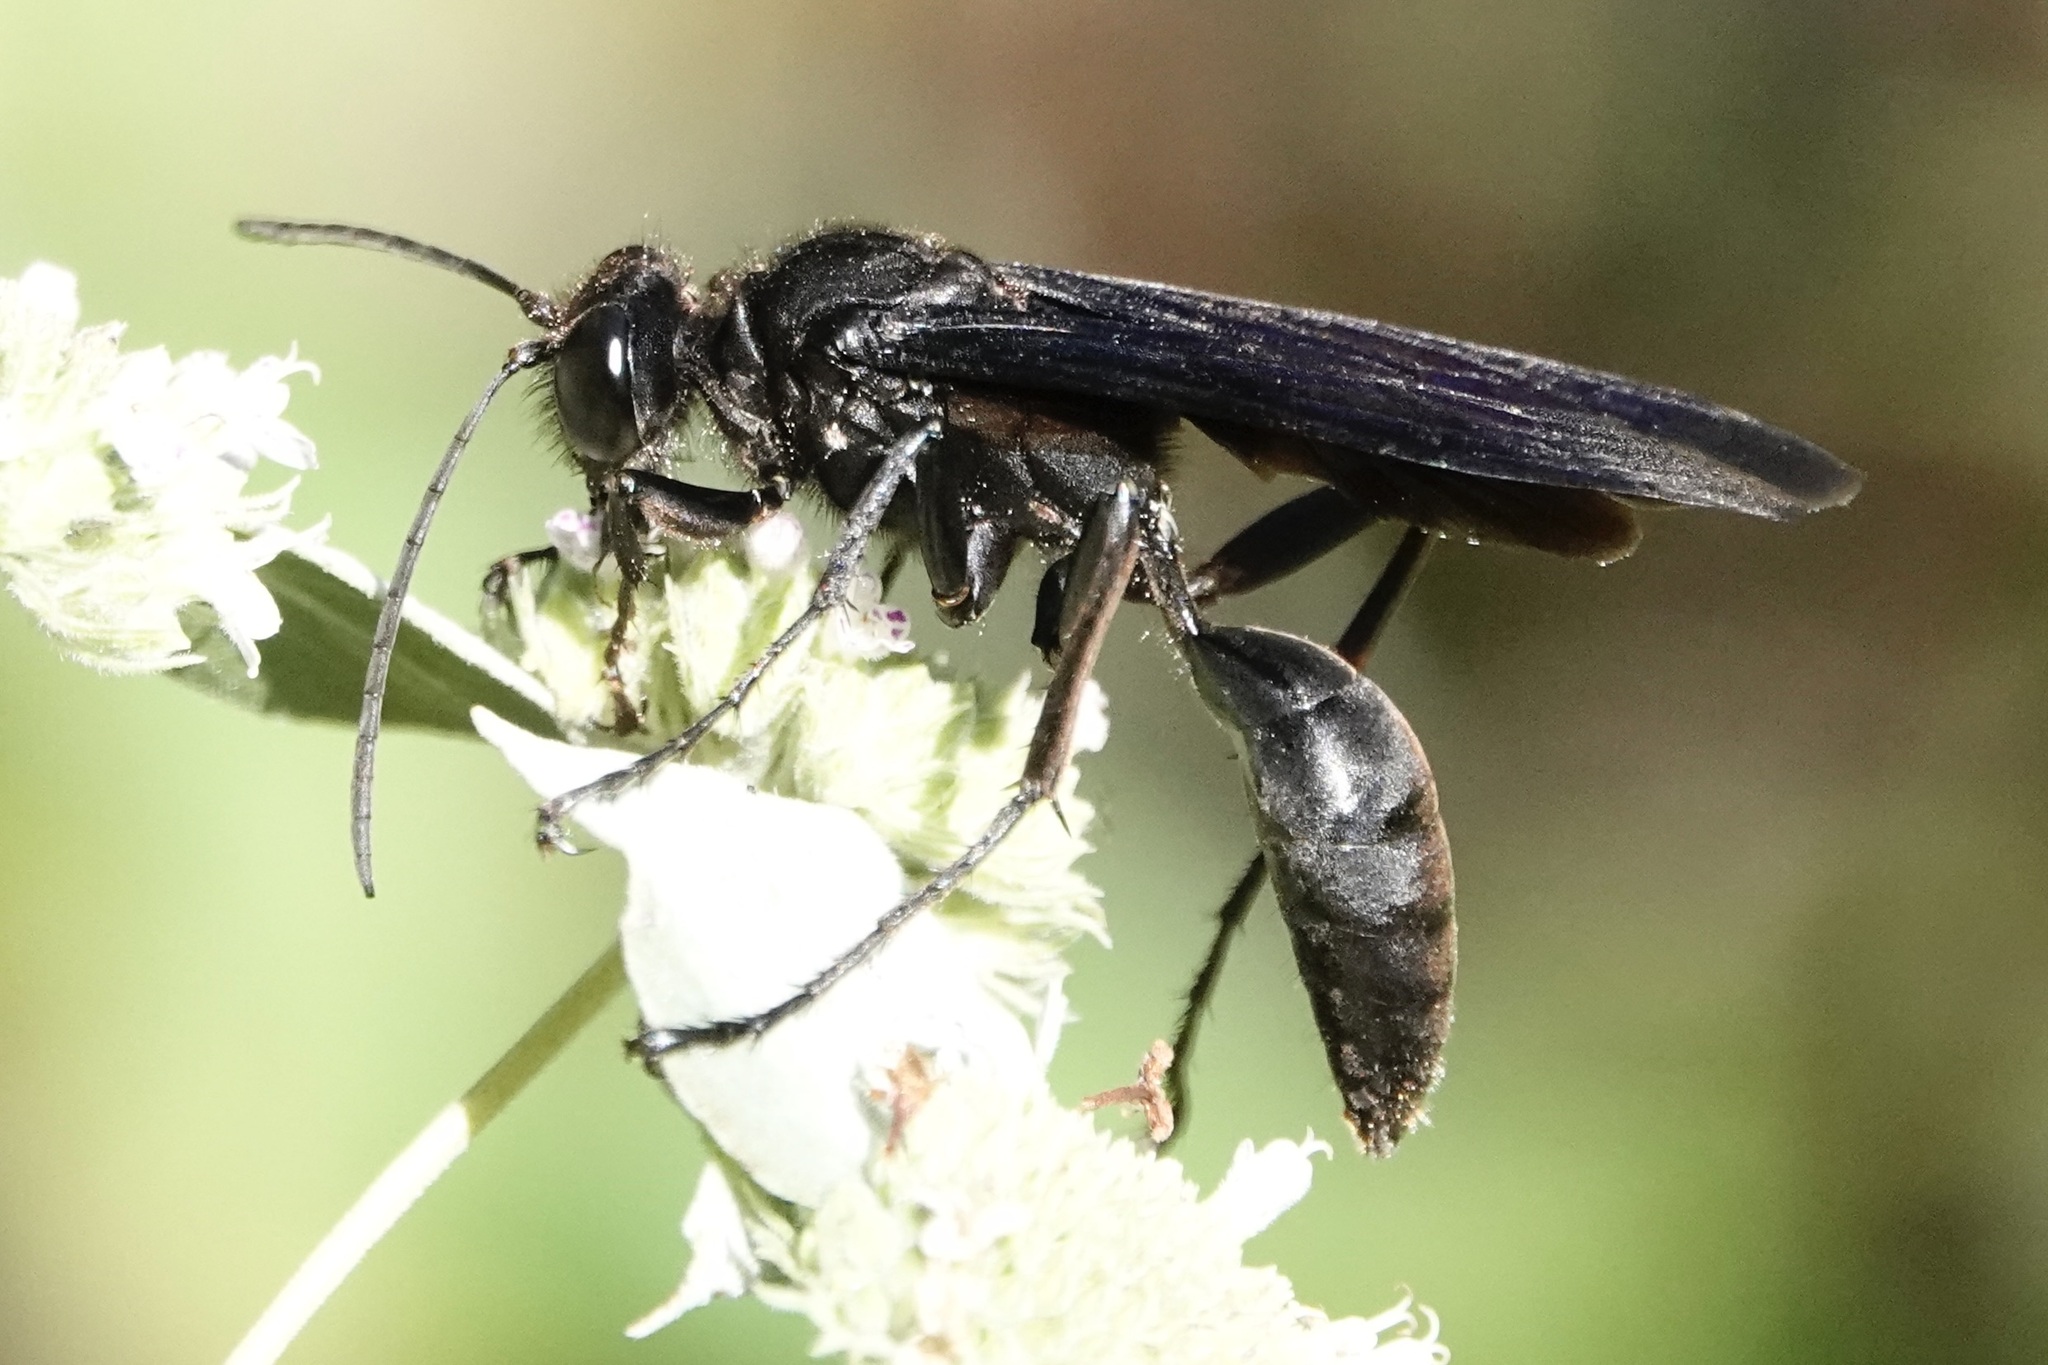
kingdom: Animalia
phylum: Arthropoda
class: Insecta
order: Hymenoptera
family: Sphecidae
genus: Sphex
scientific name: Sphex pensylvanicus
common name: Great black digger wasp
